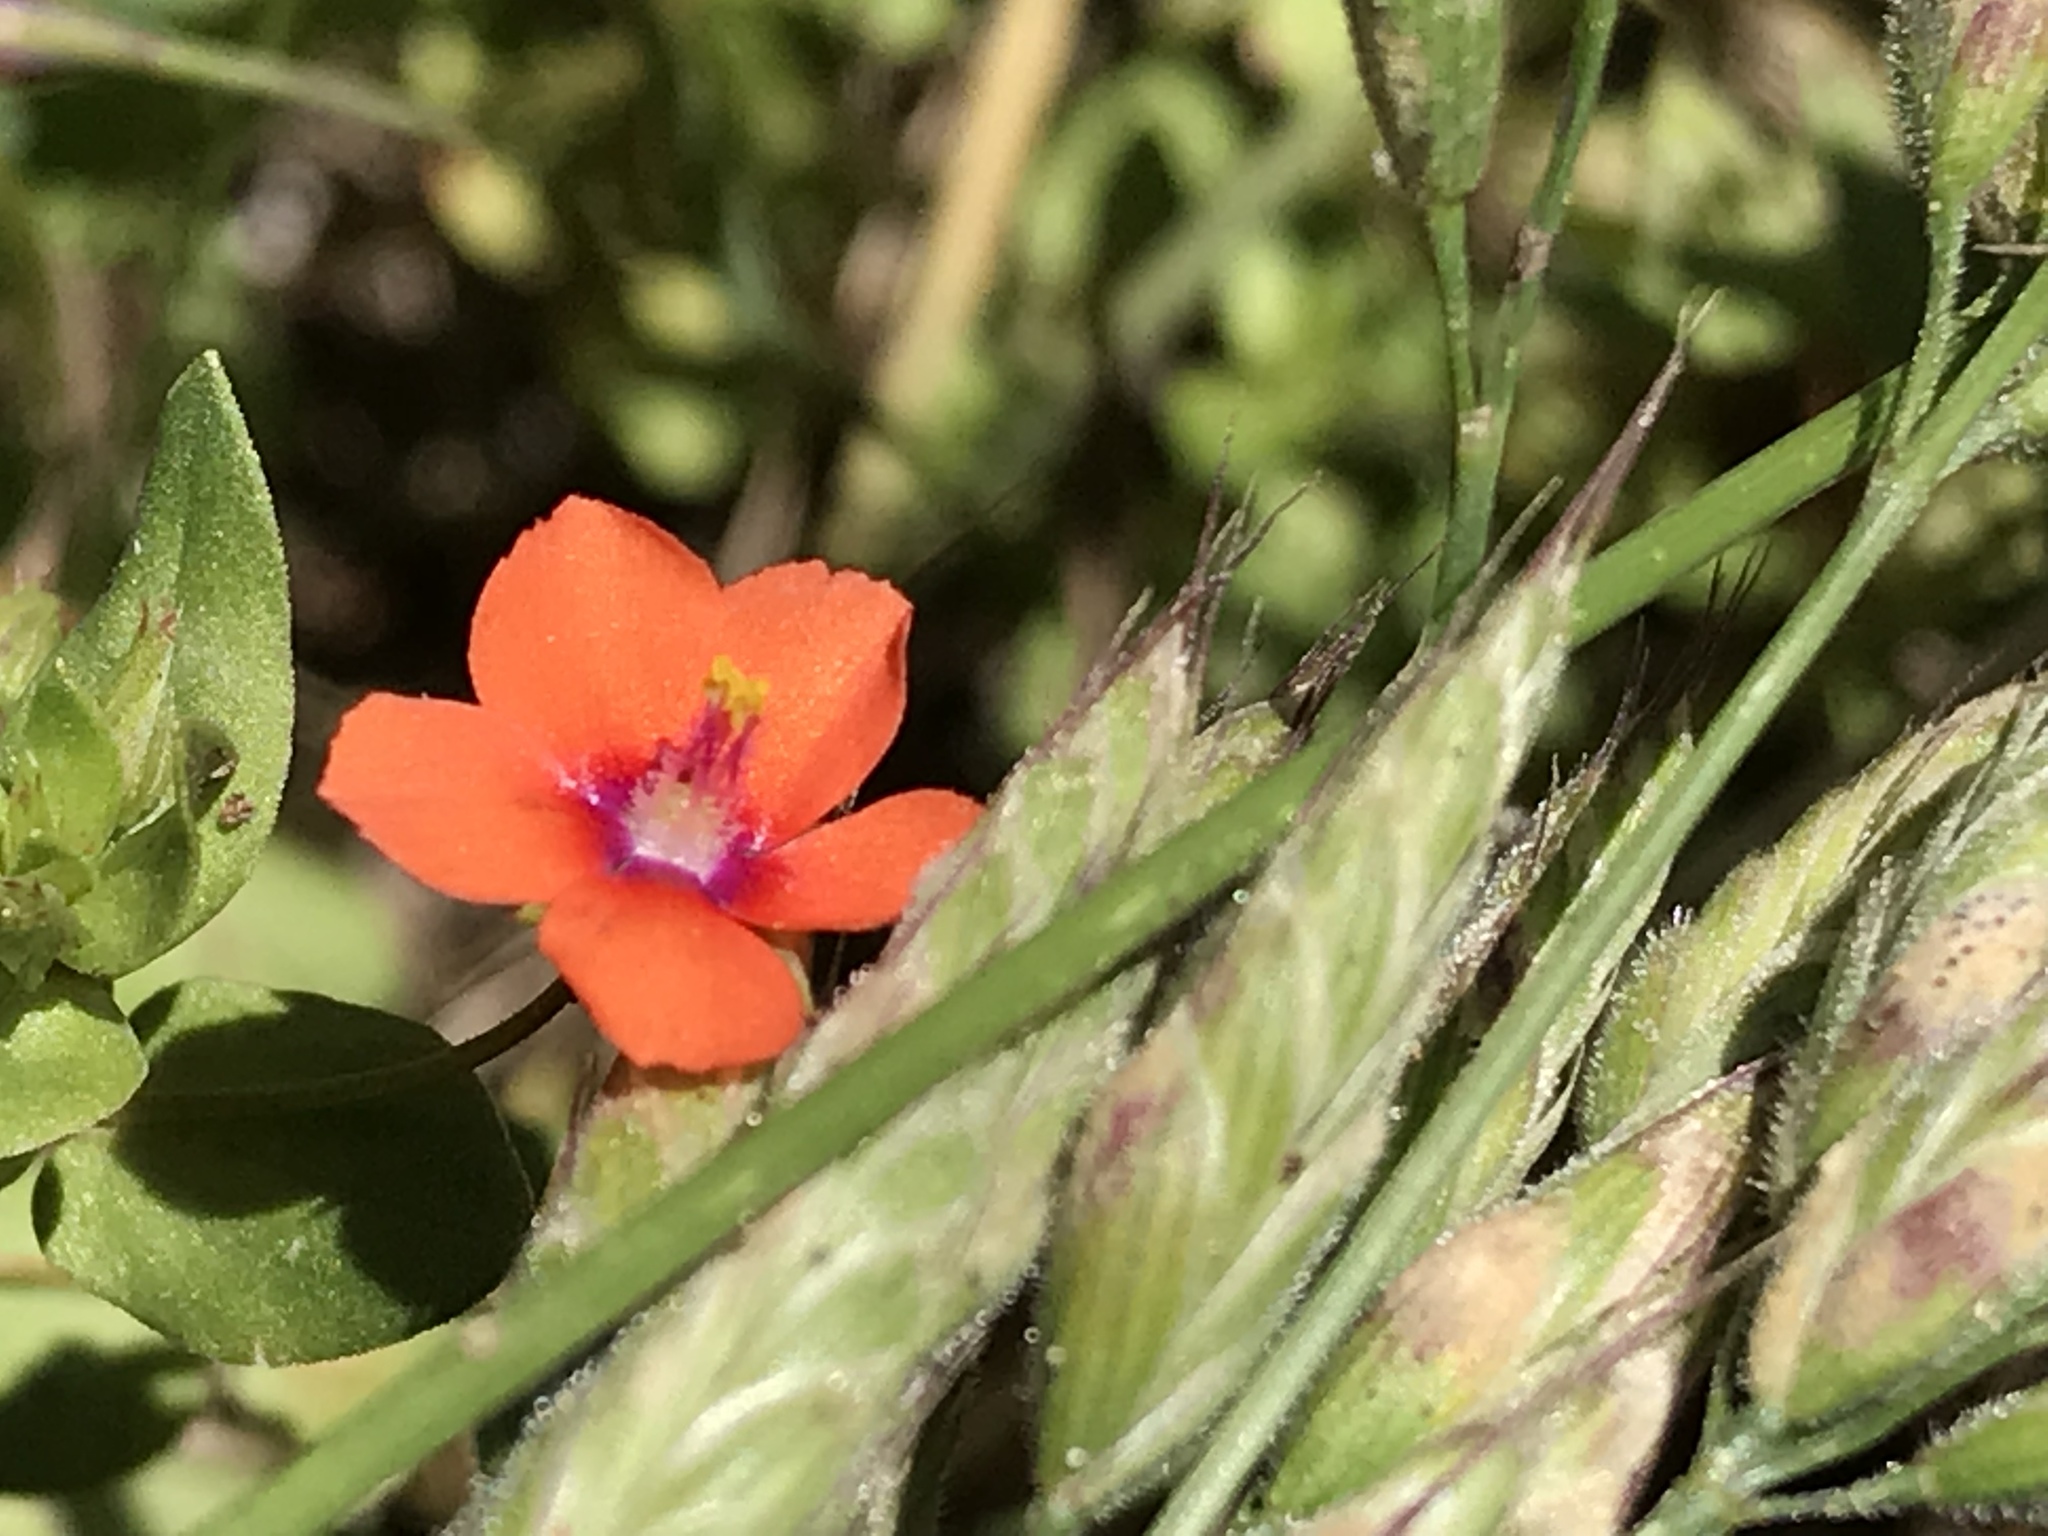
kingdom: Plantae
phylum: Tracheophyta
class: Magnoliopsida
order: Ericales
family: Primulaceae
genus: Lysimachia
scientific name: Lysimachia arvensis
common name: Scarlet pimpernel
